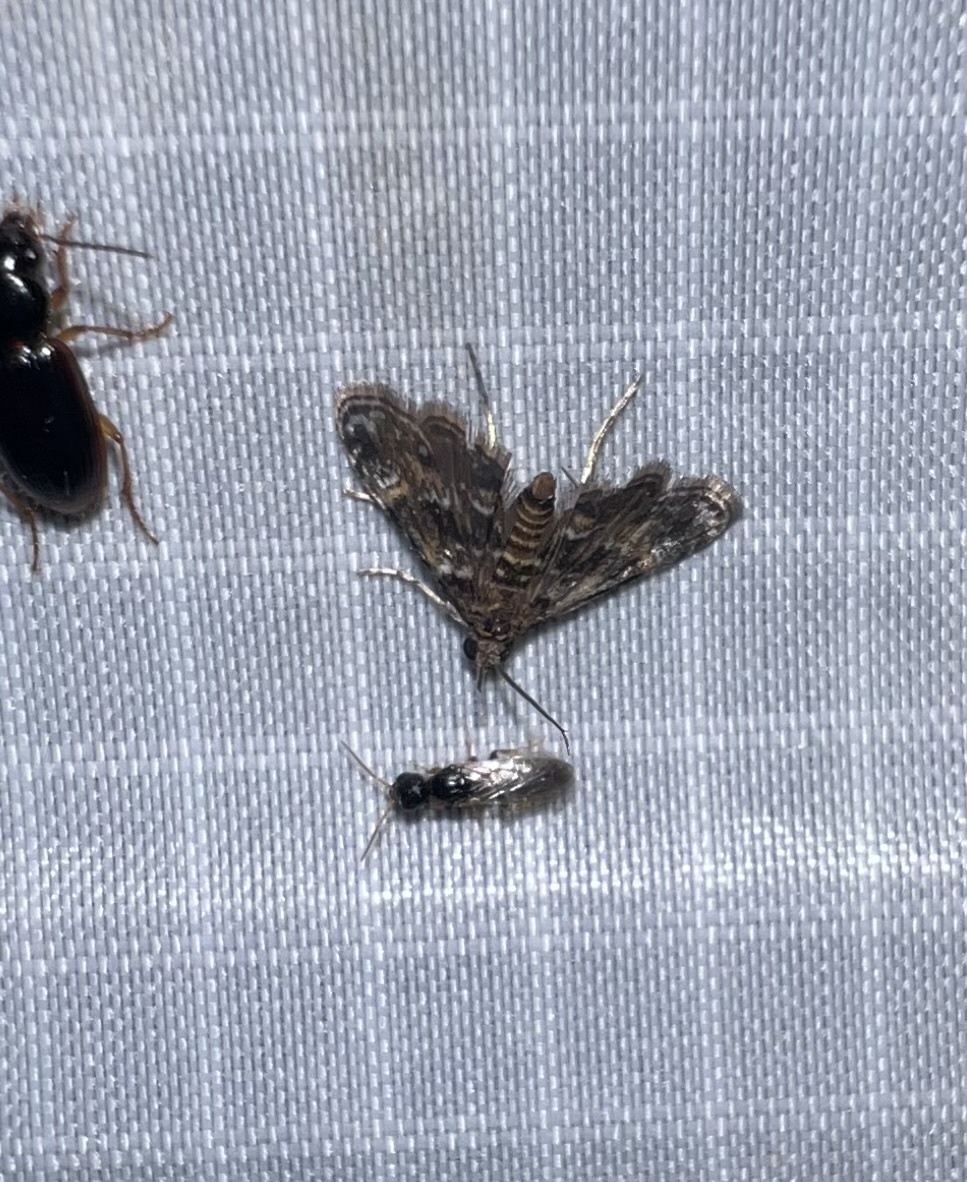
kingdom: Animalia
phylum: Arthropoda
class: Insecta
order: Lepidoptera
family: Crambidae
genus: Elophila
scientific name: Elophila obliteralis
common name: Waterlily leafcutter moth
